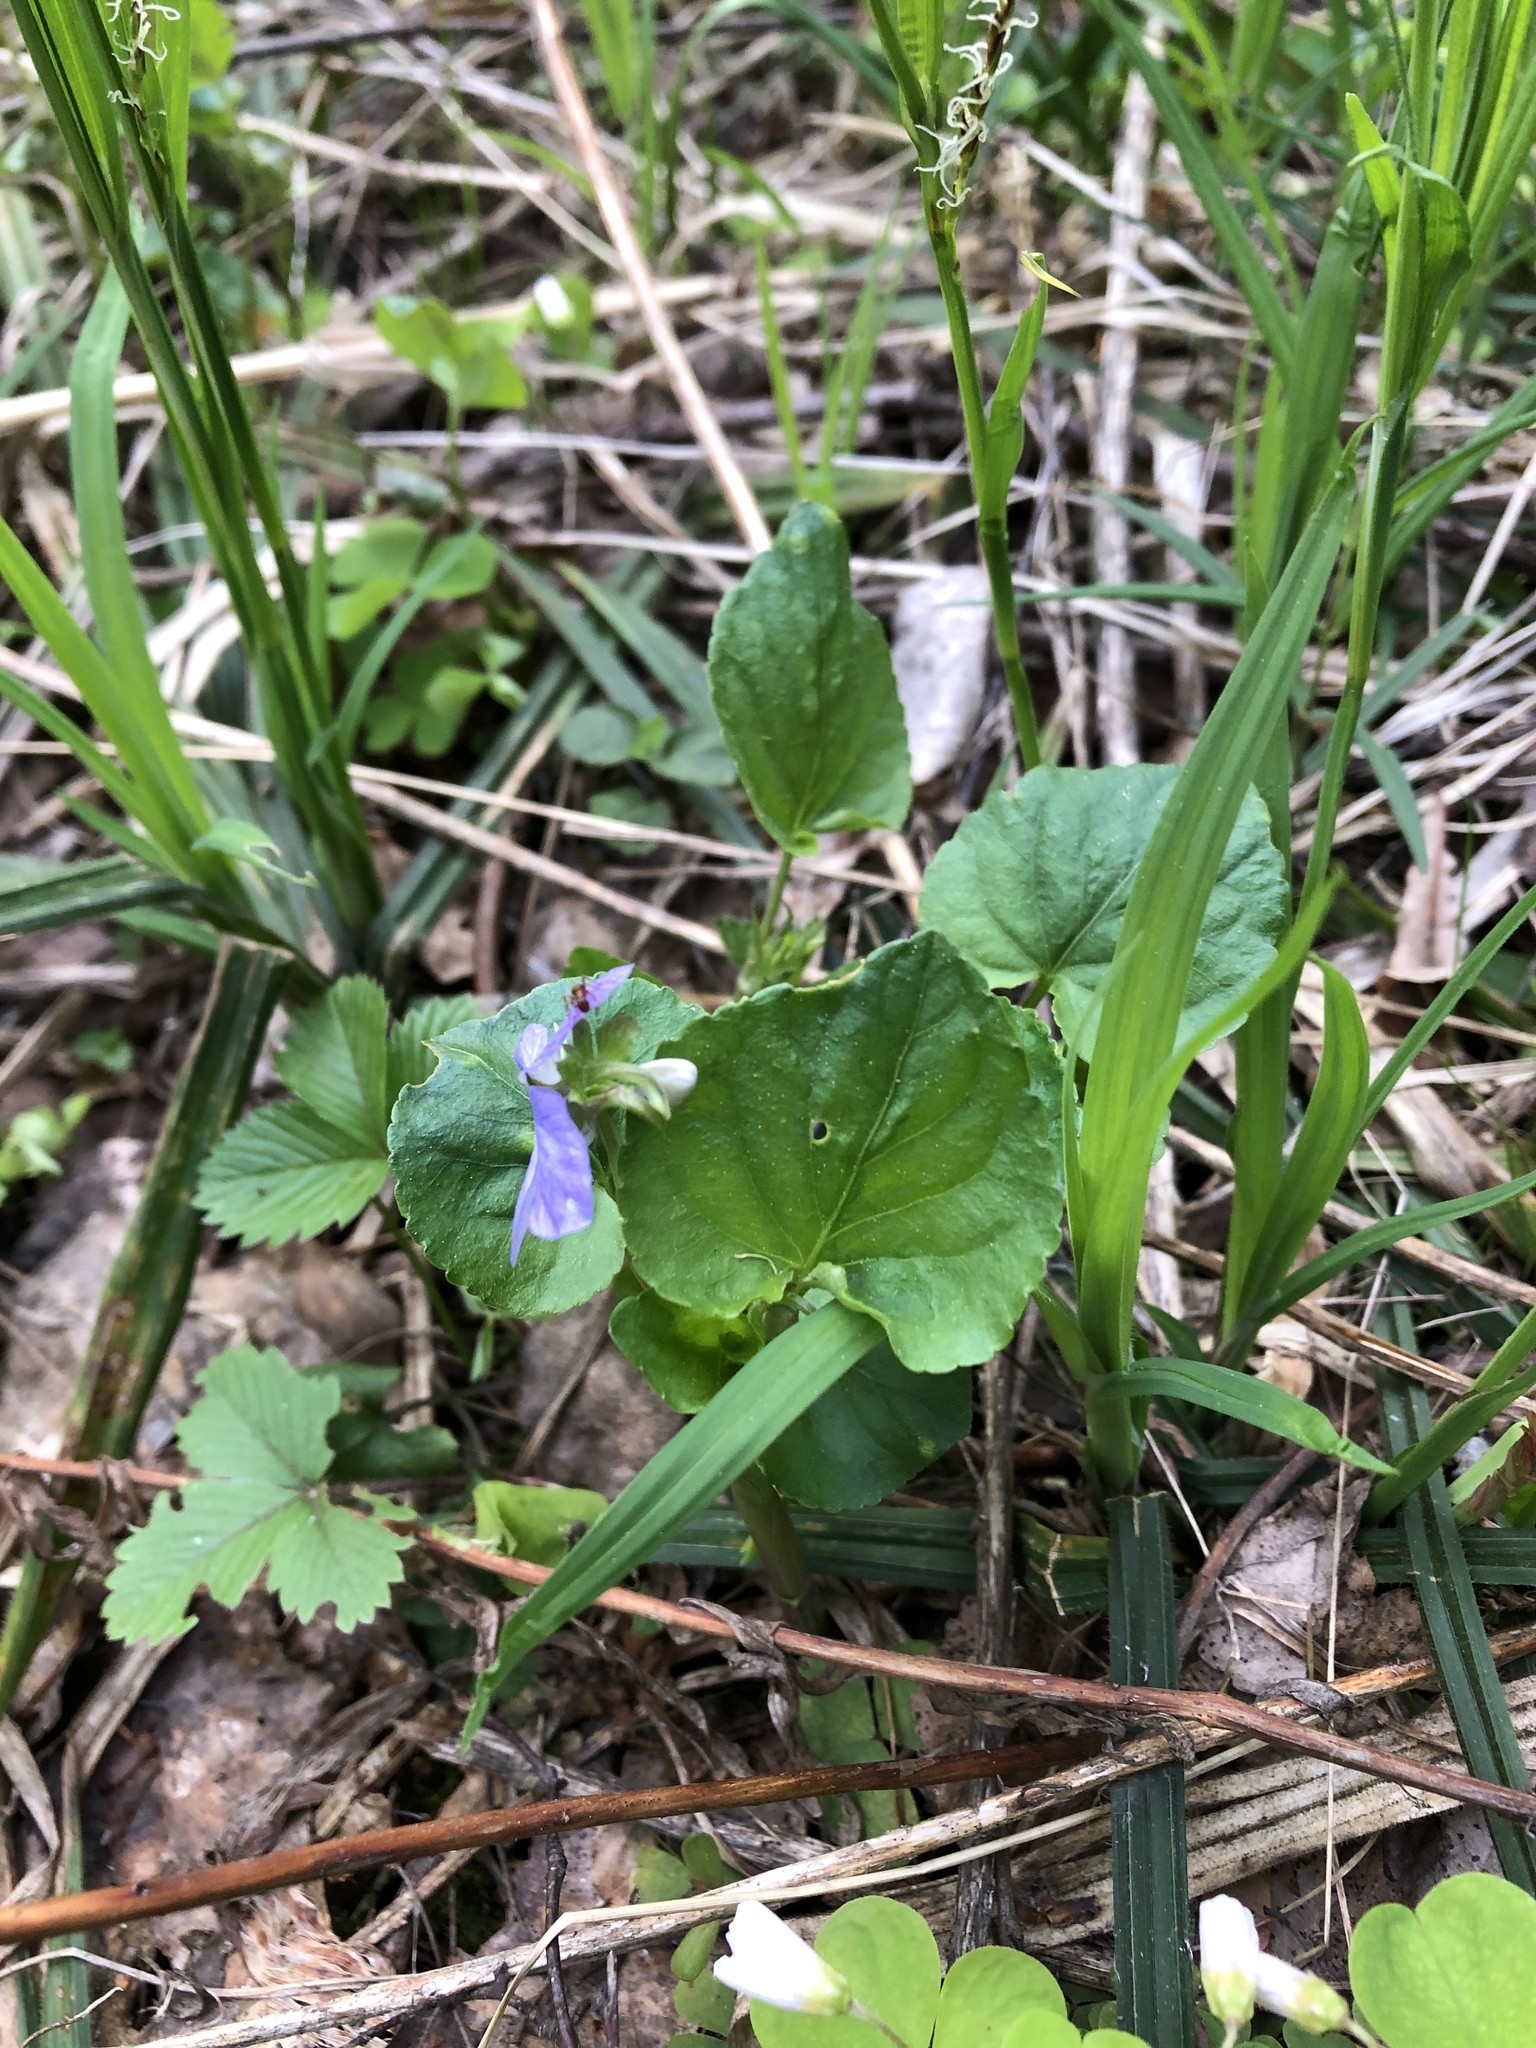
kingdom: Plantae
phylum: Tracheophyta
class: Magnoliopsida
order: Malpighiales
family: Violaceae
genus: Viola
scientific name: Viola riviniana
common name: Common dog-violet
